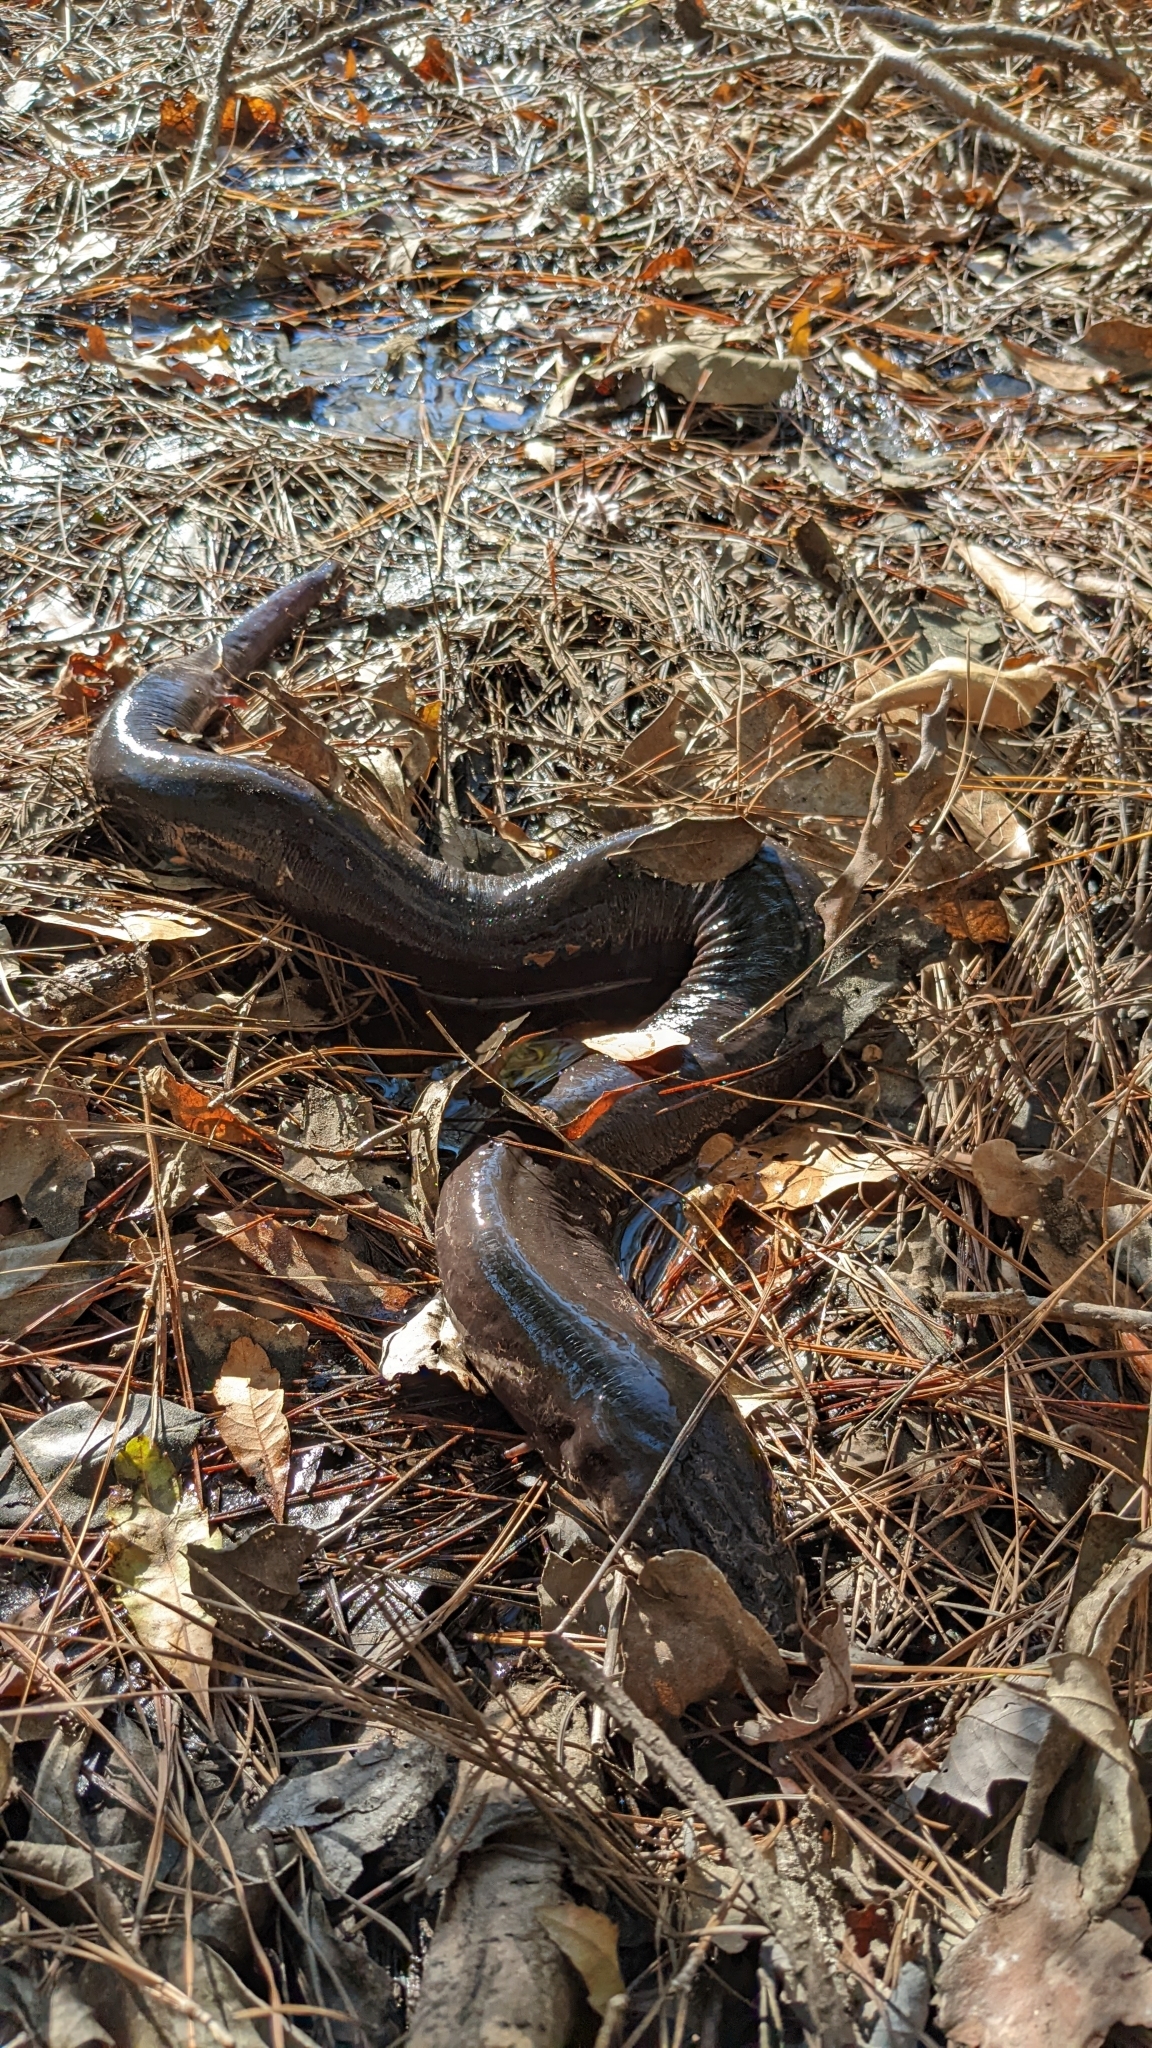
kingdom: Animalia
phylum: Chordata
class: Amphibia
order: Caudata
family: Amphiumidae
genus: Amphiuma
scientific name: Amphiuma means
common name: Two-toed amphiuma
